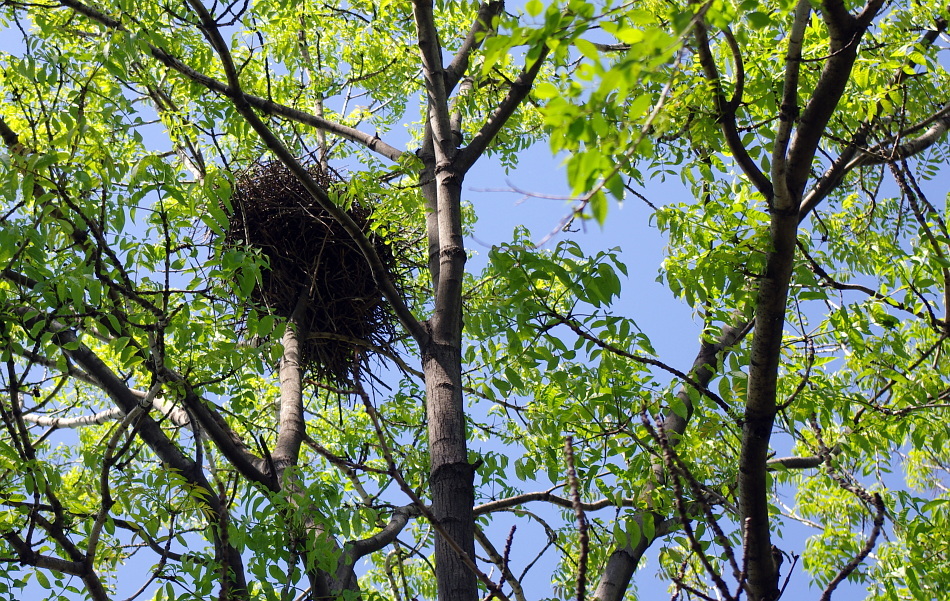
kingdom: Plantae
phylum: Tracheophyta
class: Magnoliopsida
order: Lamiales
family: Oleaceae
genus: Fraxinus
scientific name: Fraxinus mandshurica
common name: Manchurian ash
